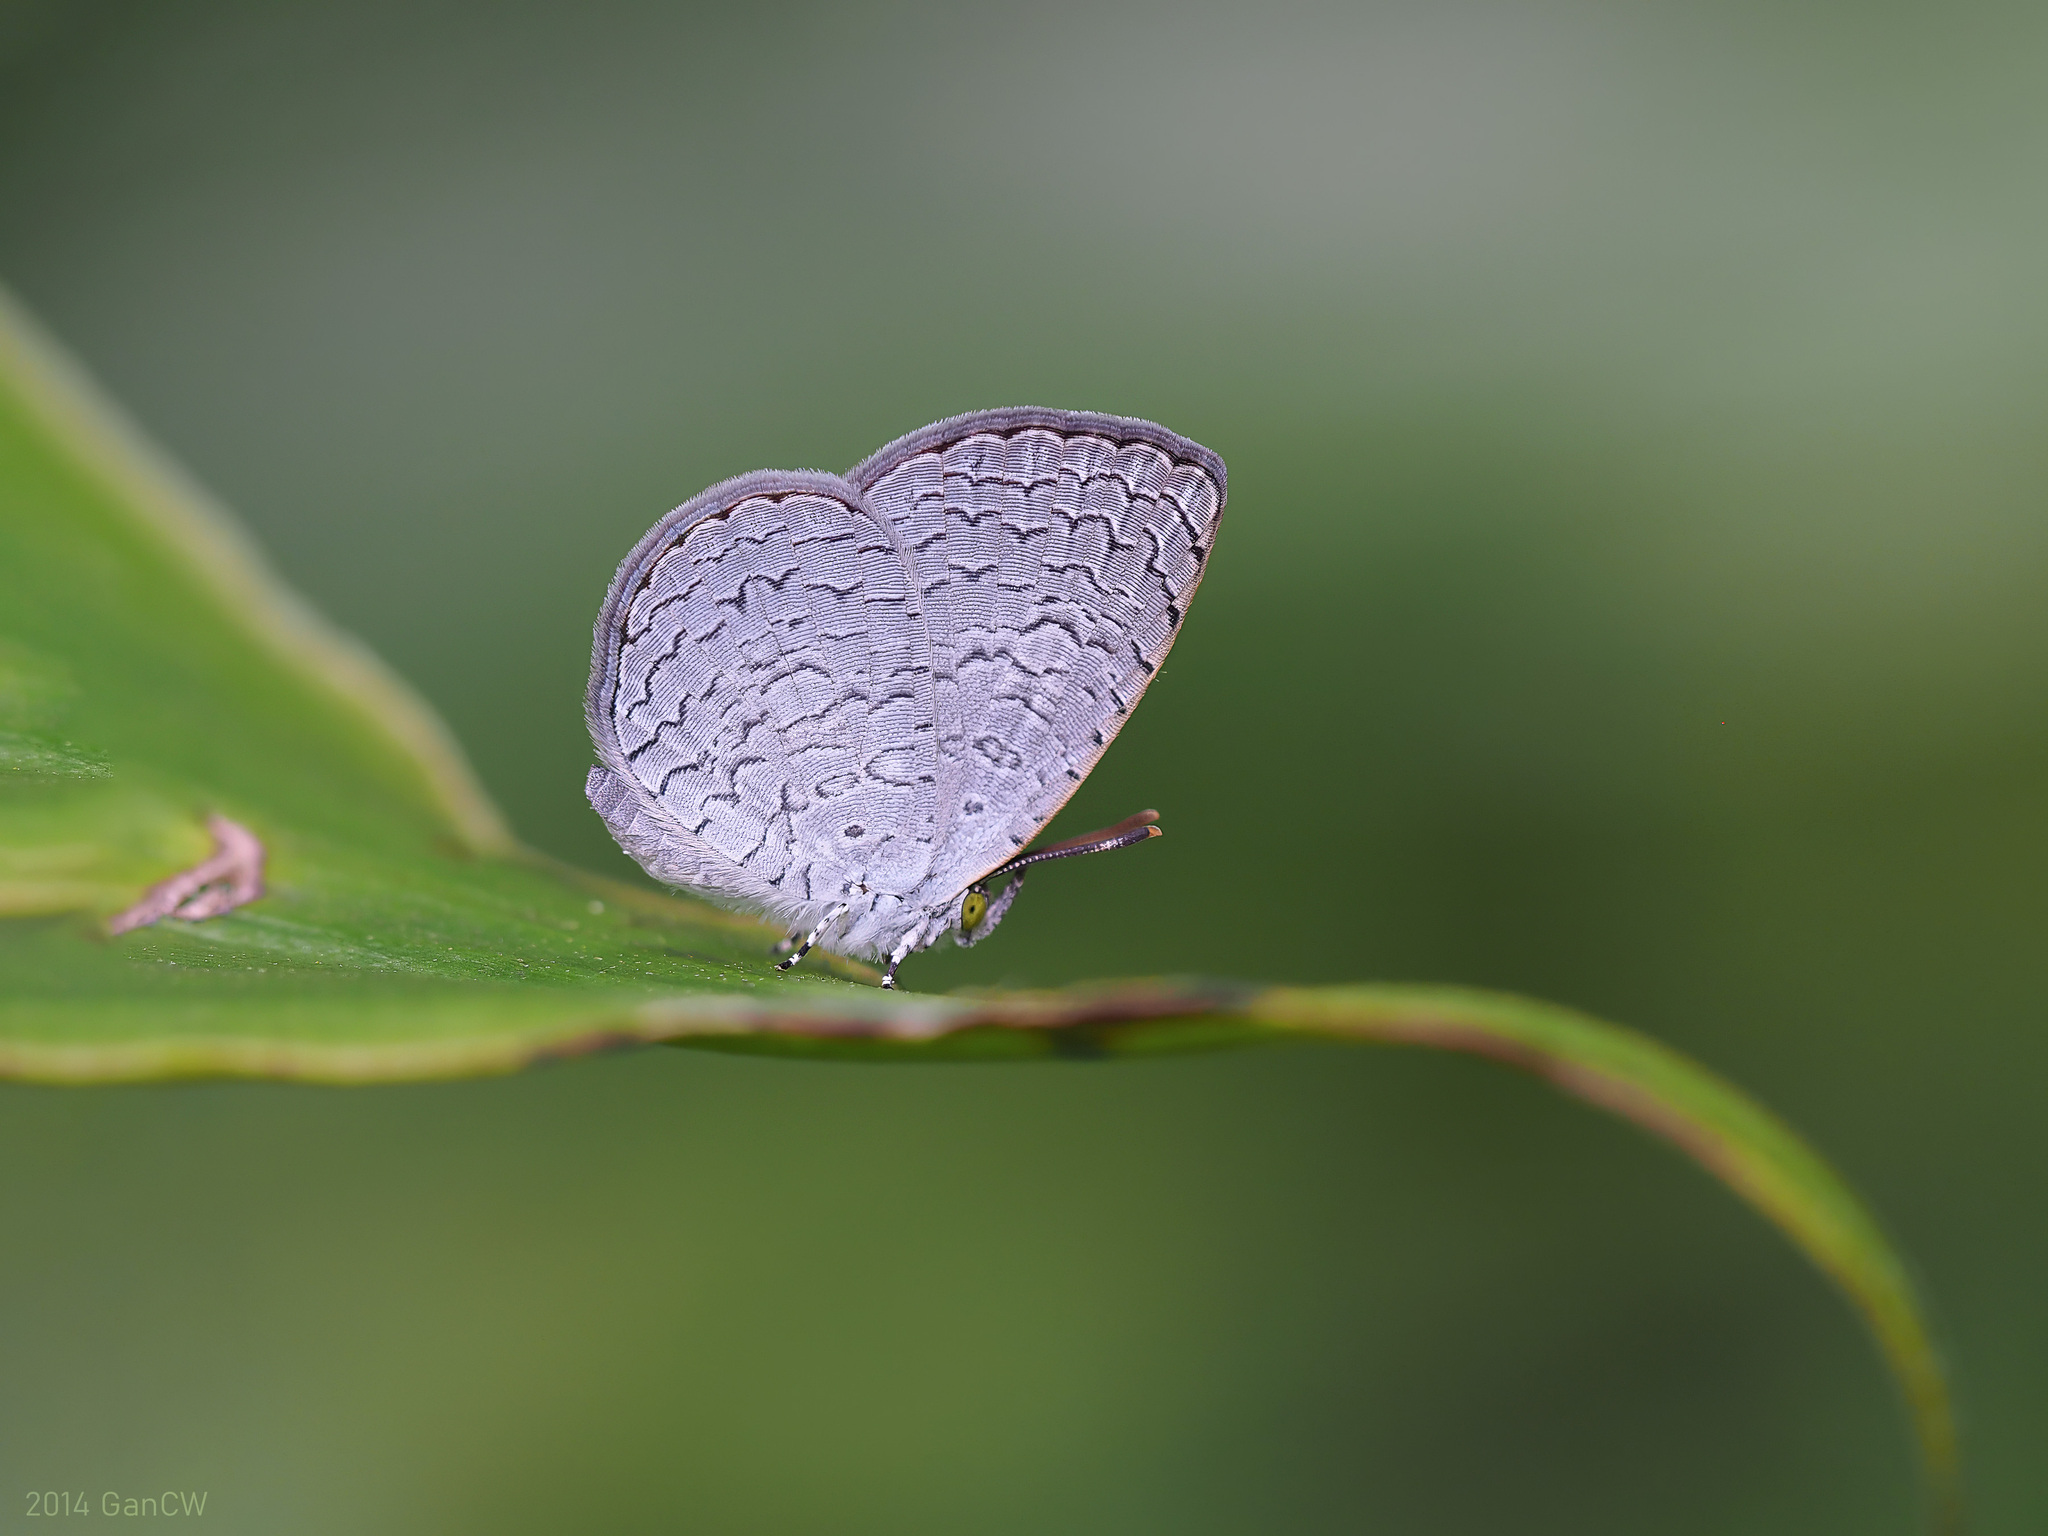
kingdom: Animalia
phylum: Arthropoda
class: Insecta
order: Lepidoptera
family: Lycaenidae
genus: Spalgis
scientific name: Spalgis epius
